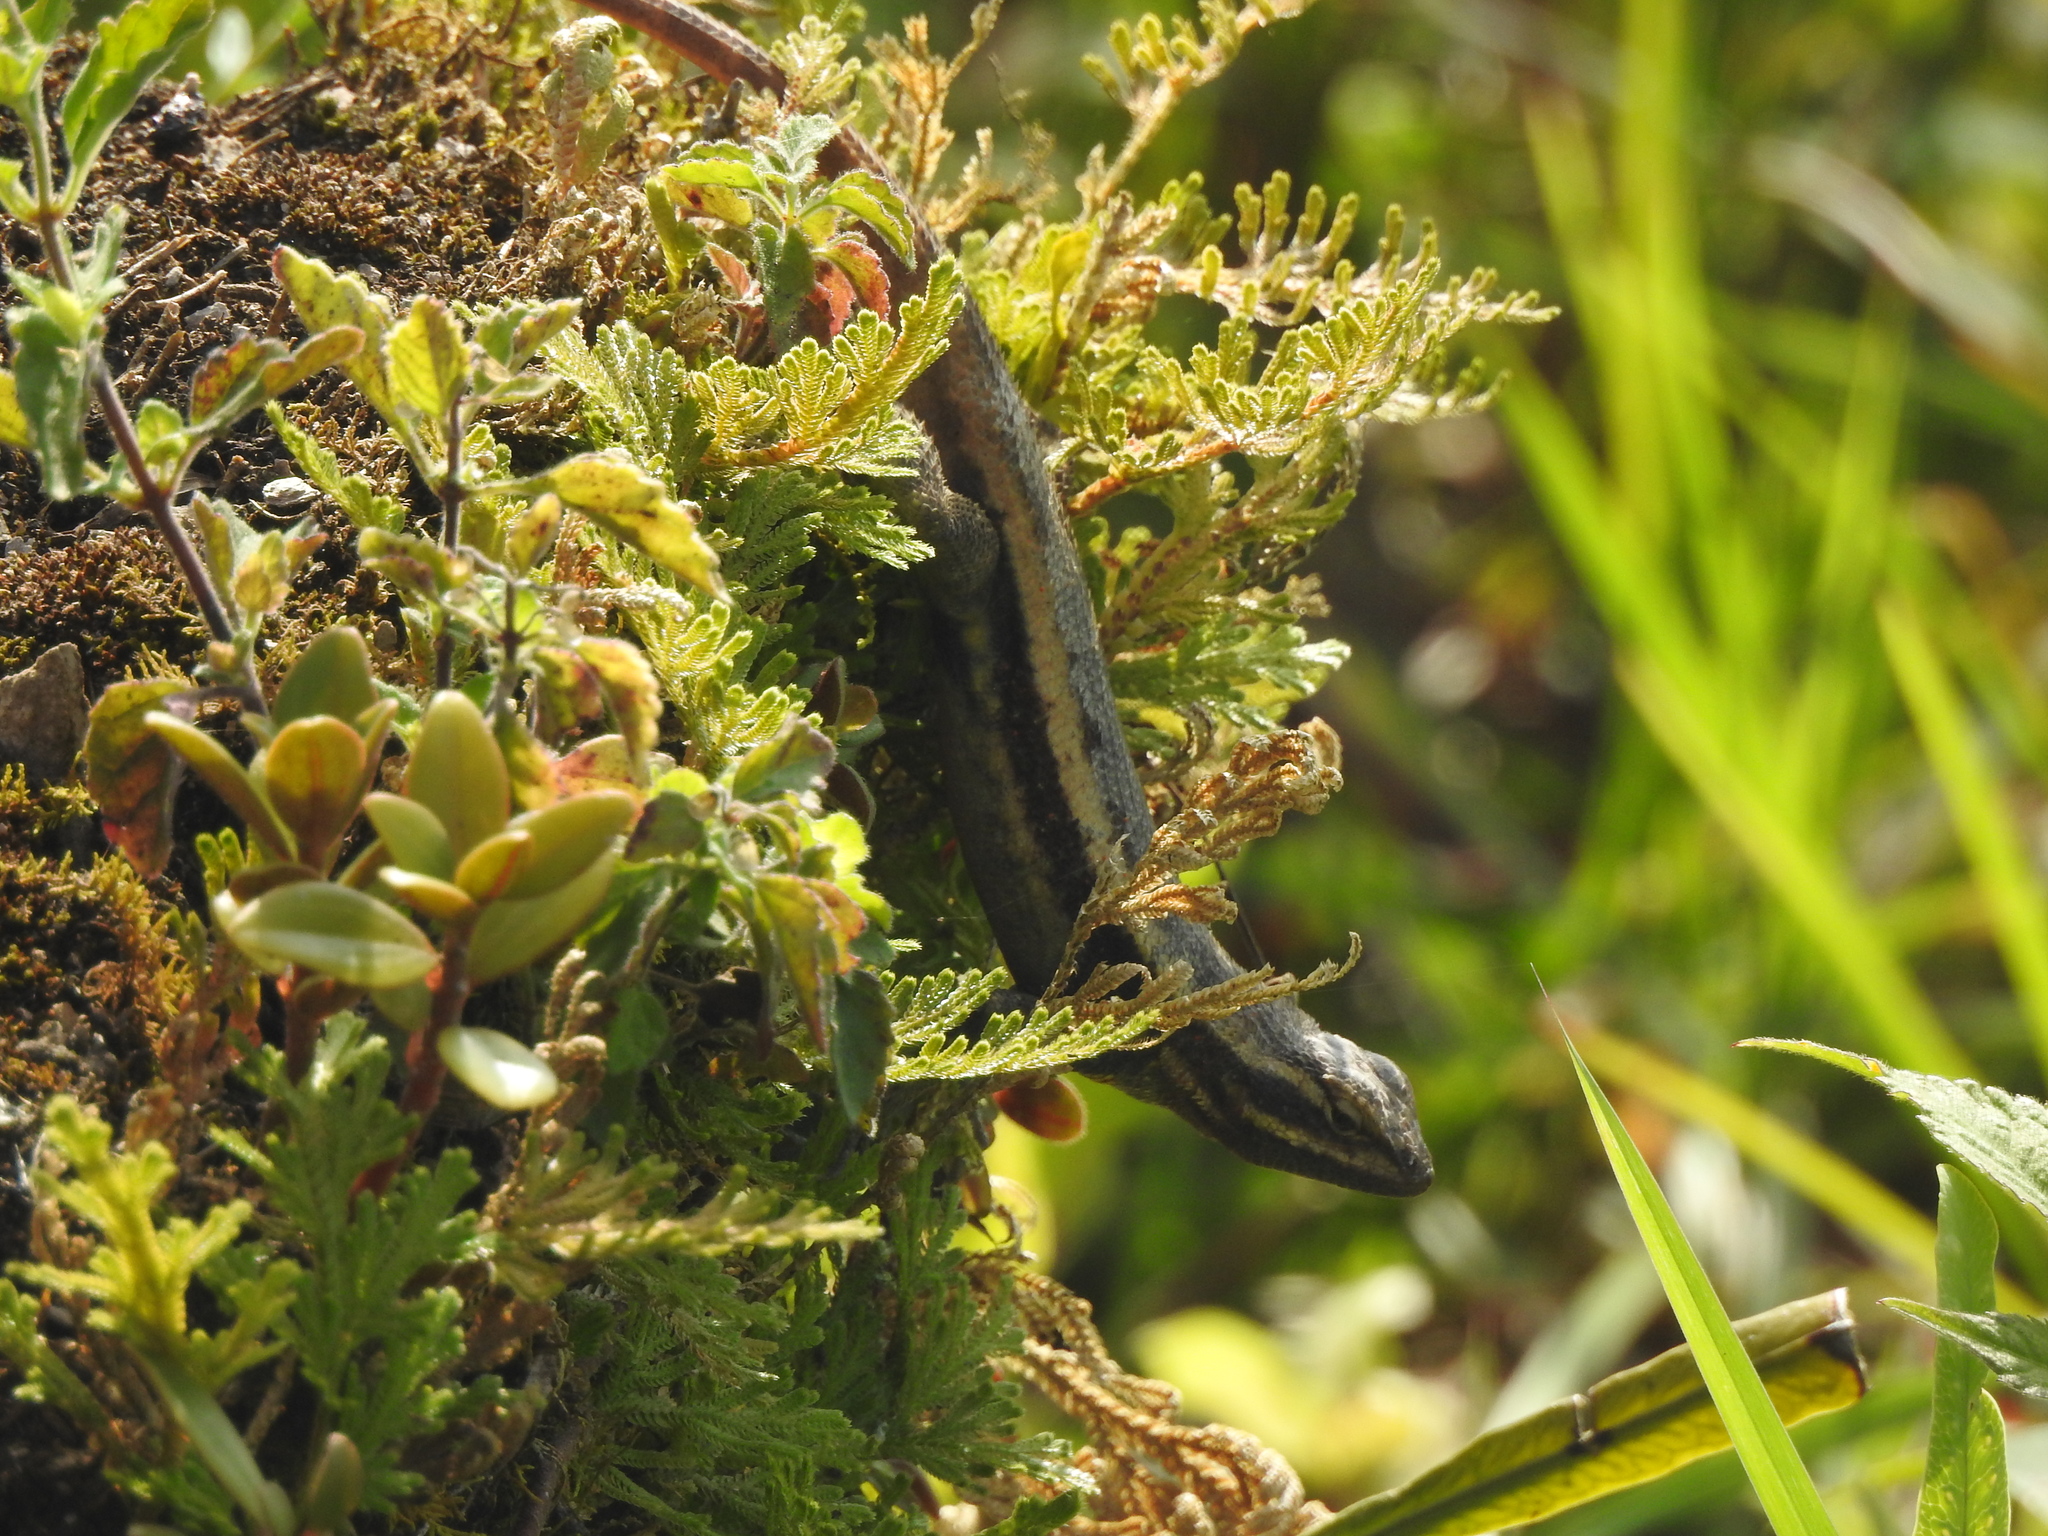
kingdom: Animalia
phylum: Chordata
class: Squamata
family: Phrynosomatidae
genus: Sceloporus
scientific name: Sceloporus variabilis
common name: Rosebelly lizard
